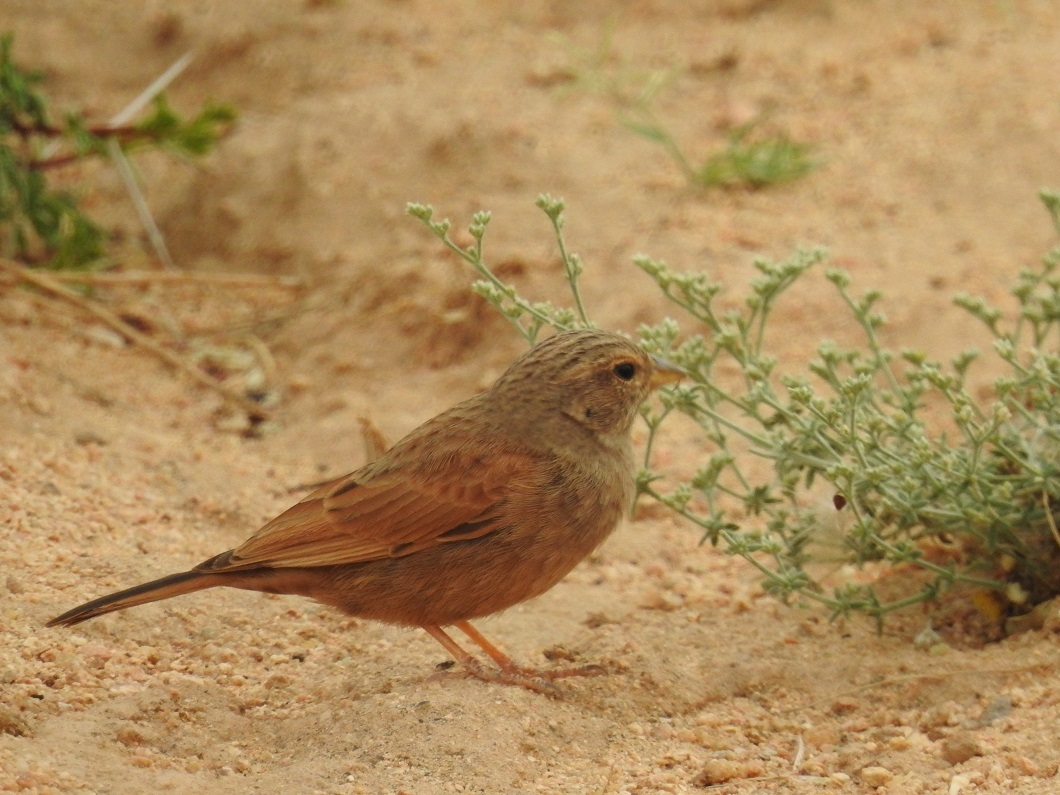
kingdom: Animalia
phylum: Chordata
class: Aves
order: Passeriformes
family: Emberizidae
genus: Emberiza
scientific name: Emberiza sahari
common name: House bunting
